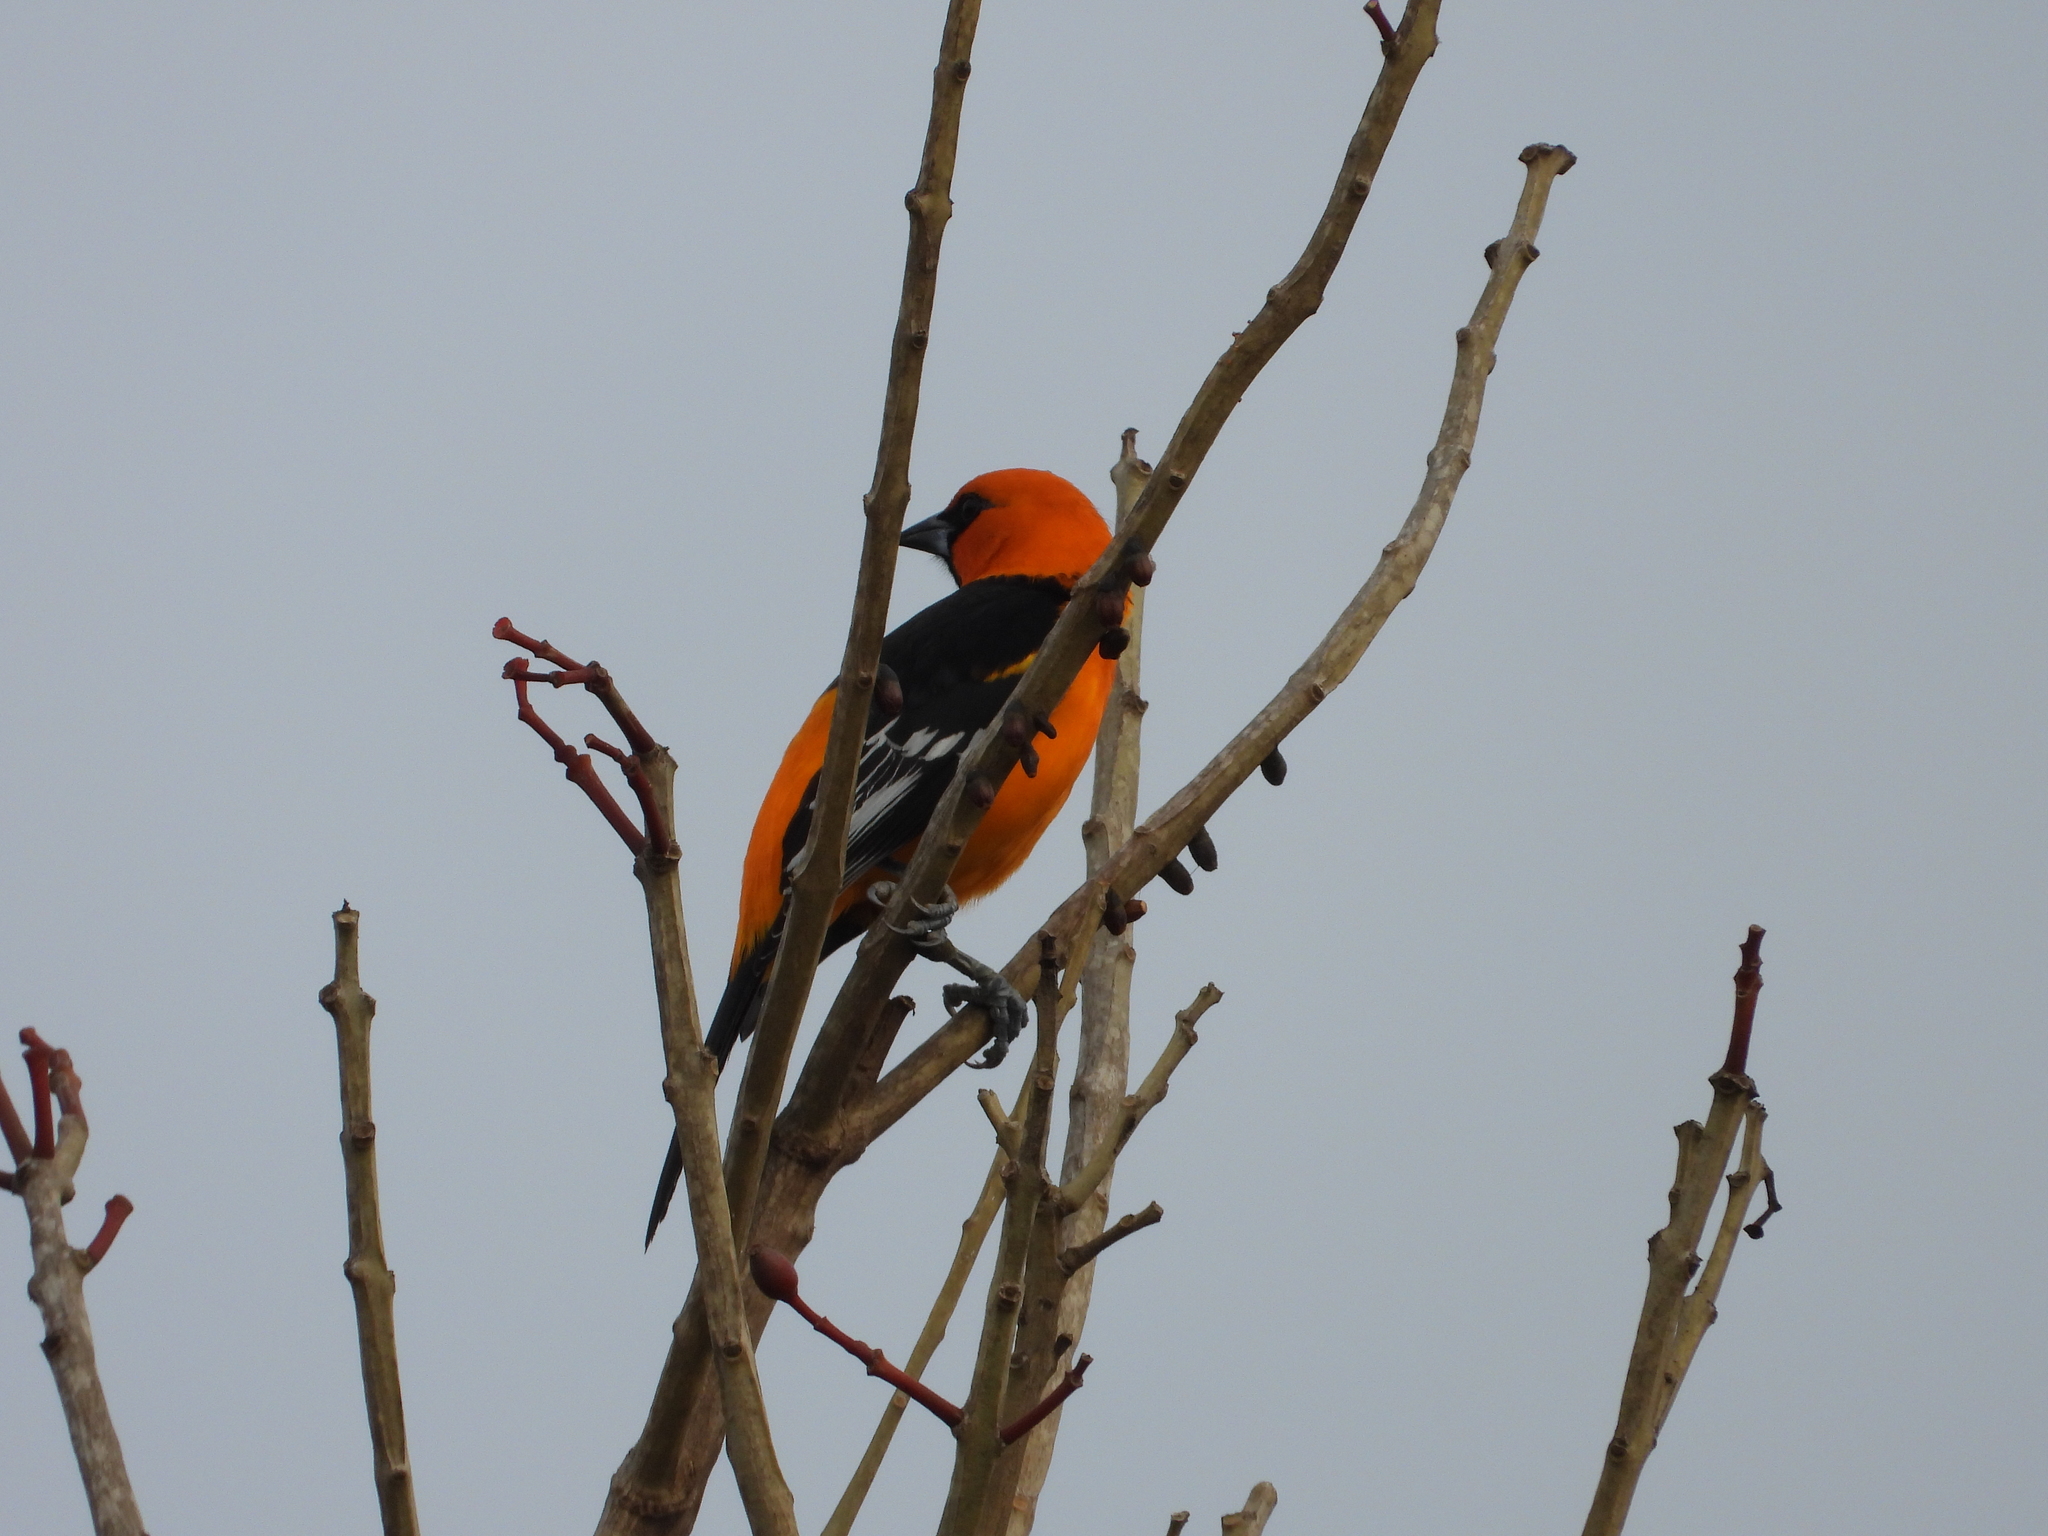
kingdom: Animalia
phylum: Chordata
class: Aves
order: Passeriformes
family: Icteridae
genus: Icterus
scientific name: Icterus gularis
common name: Altamira oriole
